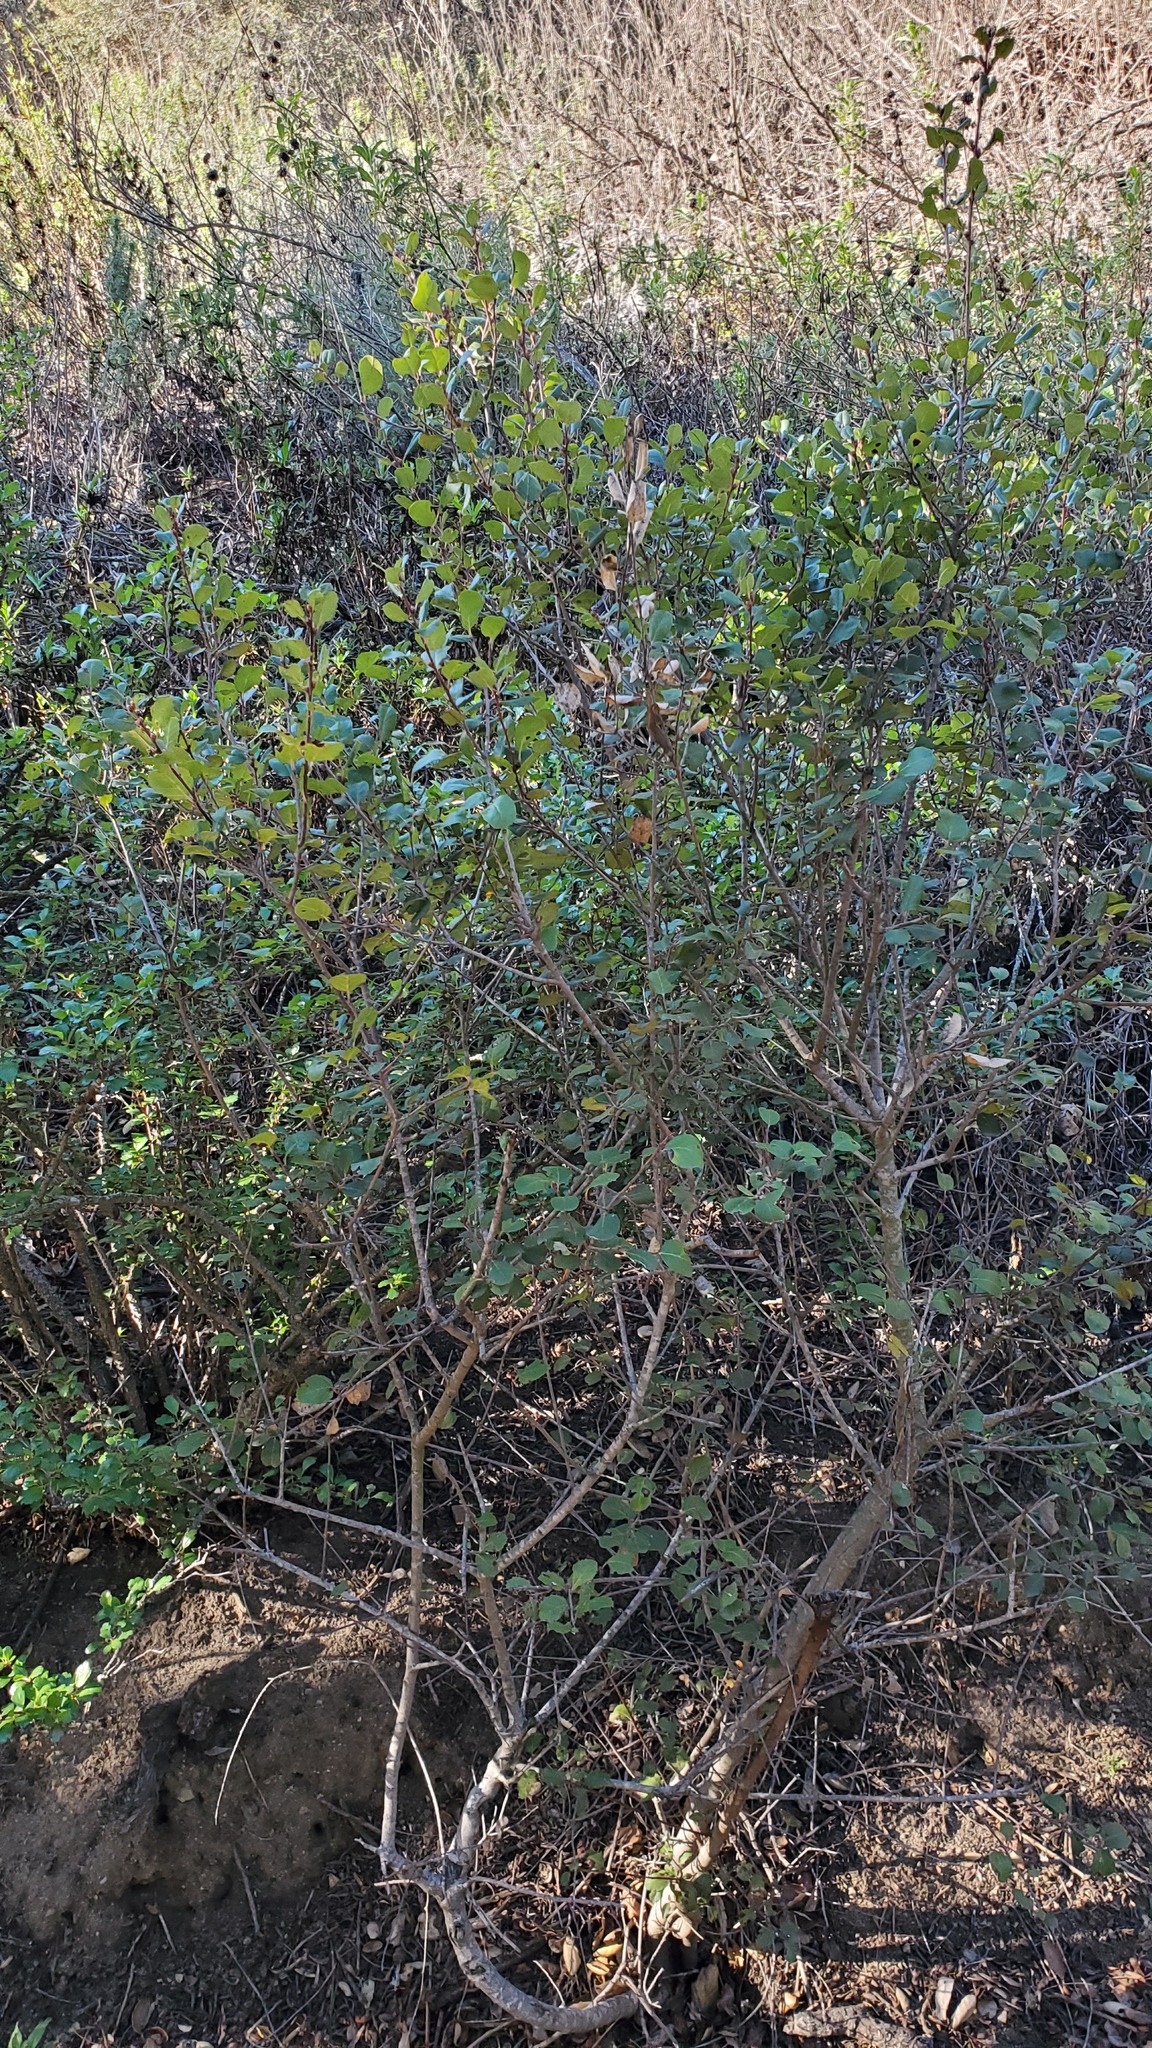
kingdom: Plantae
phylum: Tracheophyta
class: Magnoliopsida
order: Rosales
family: Rhamnaceae
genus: Endotropis
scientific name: Endotropis crocea
